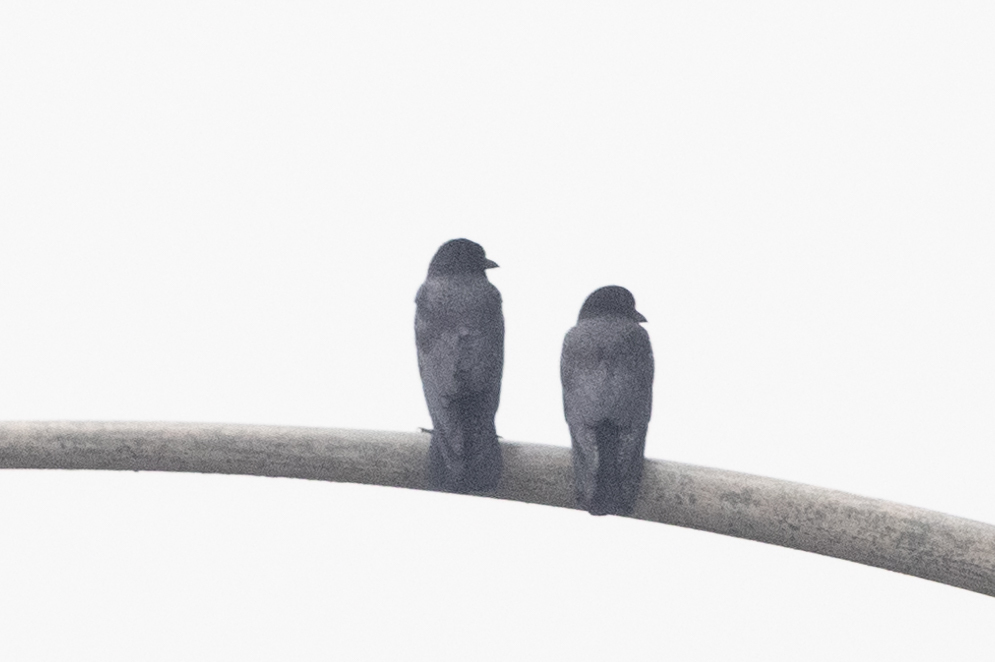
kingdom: Animalia
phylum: Chordata
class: Aves
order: Passeriformes
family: Corvidae
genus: Corvus
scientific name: Corvus brachyrhynchos
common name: American crow
